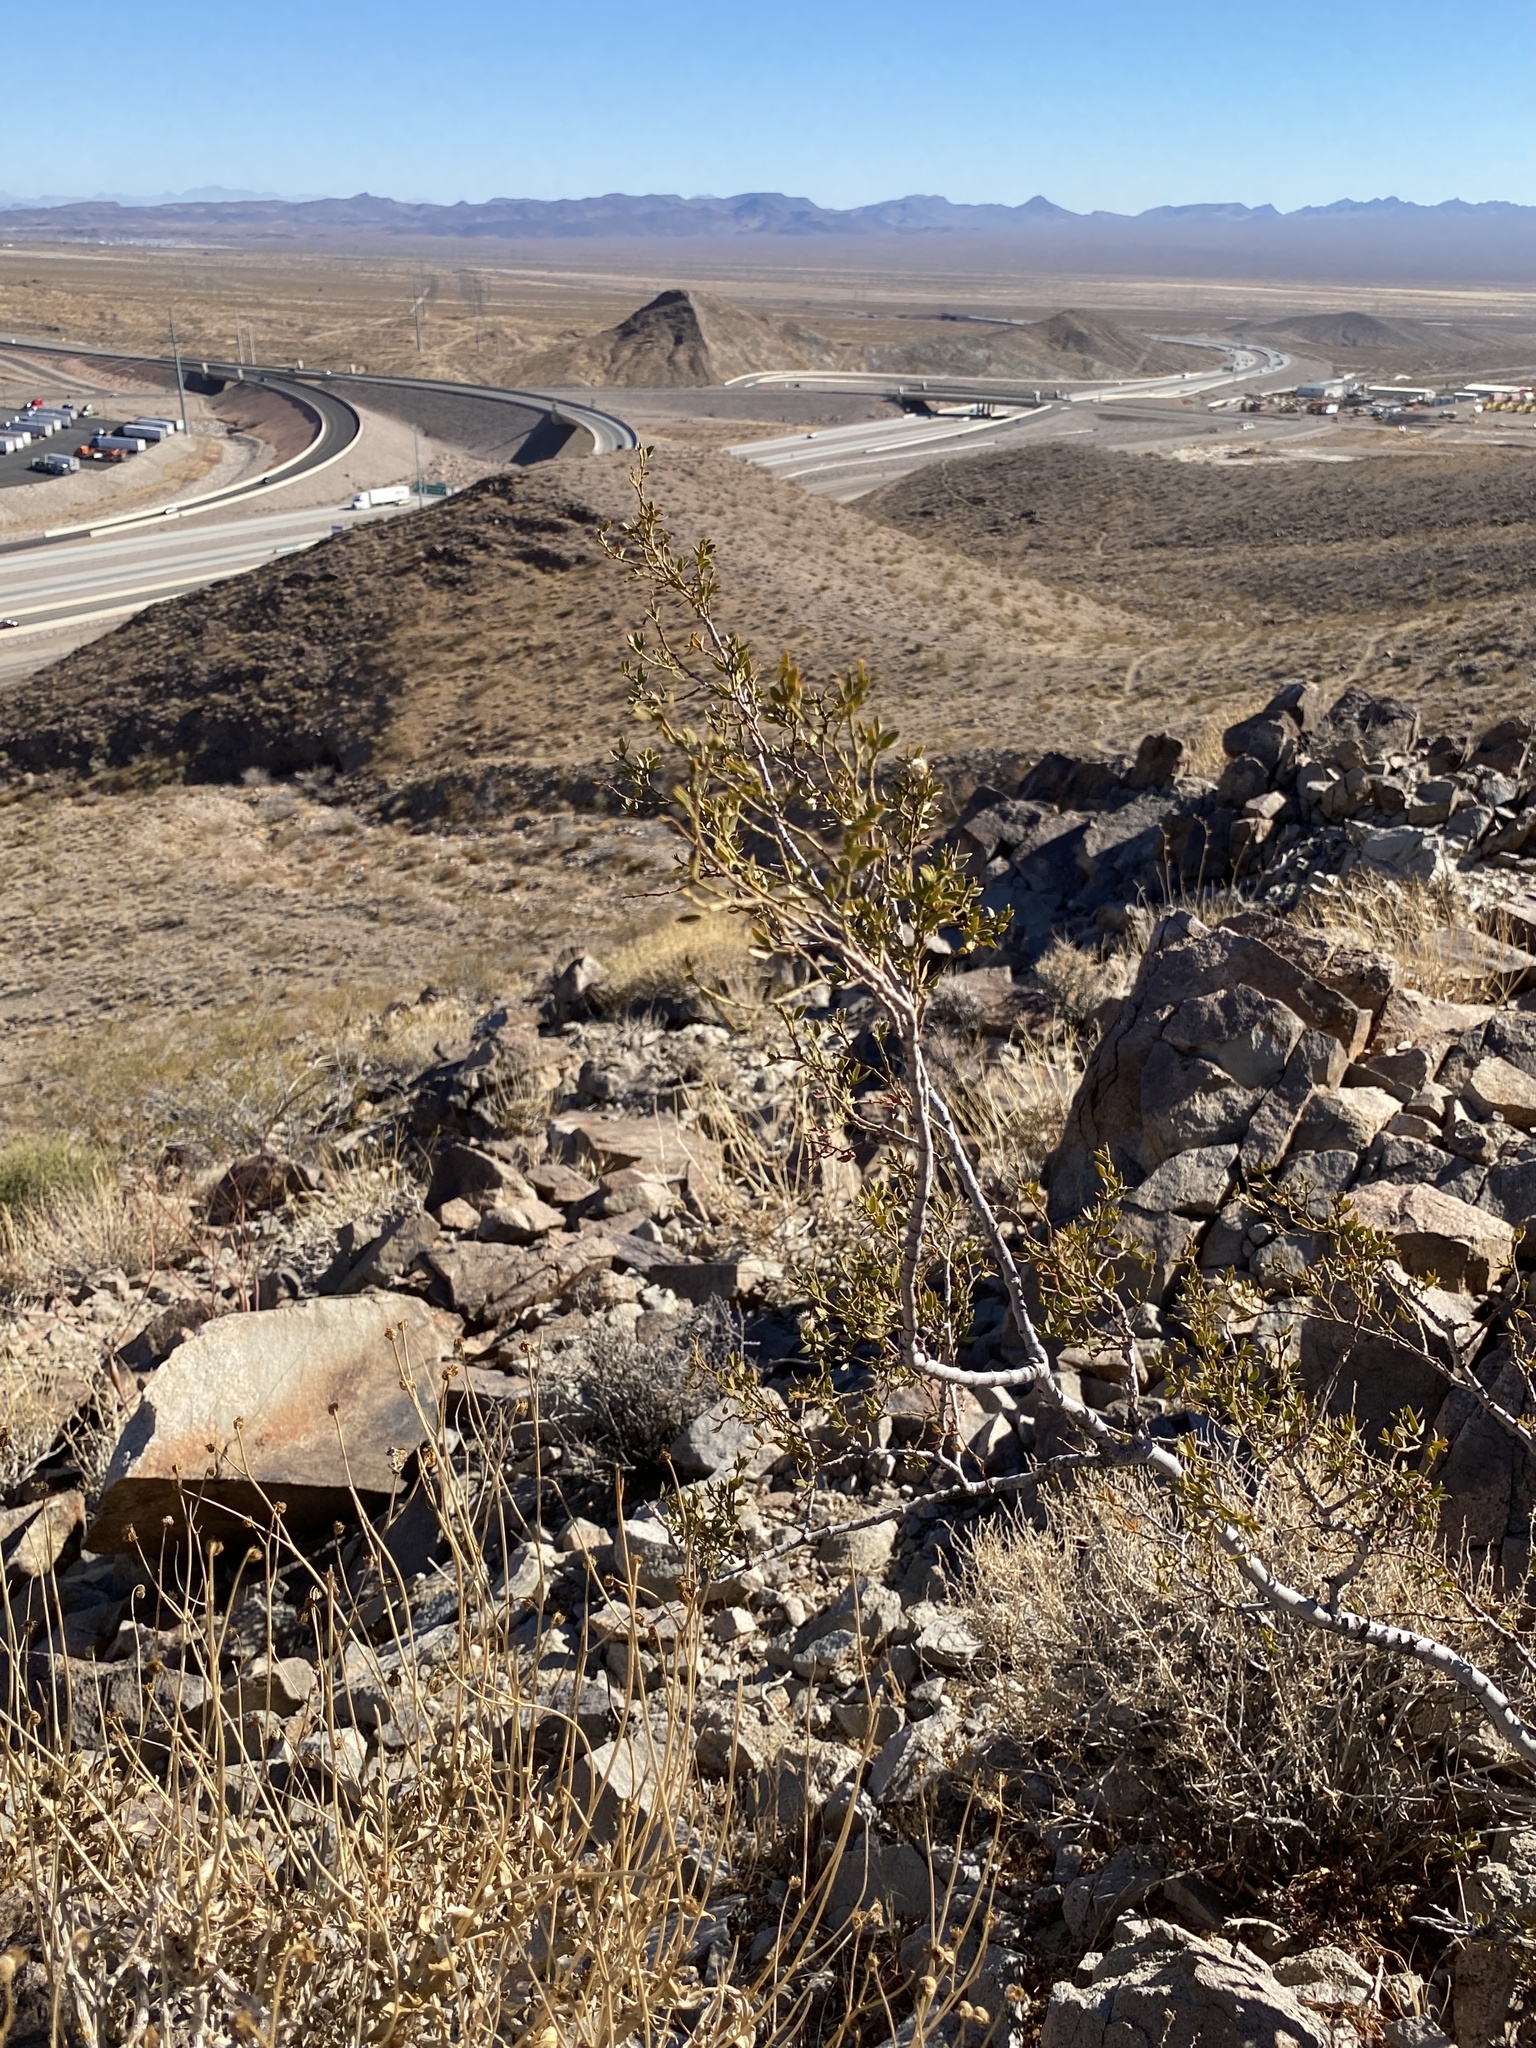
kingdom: Plantae
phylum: Tracheophyta
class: Magnoliopsida
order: Zygophyllales
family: Zygophyllaceae
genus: Larrea
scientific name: Larrea tridentata
